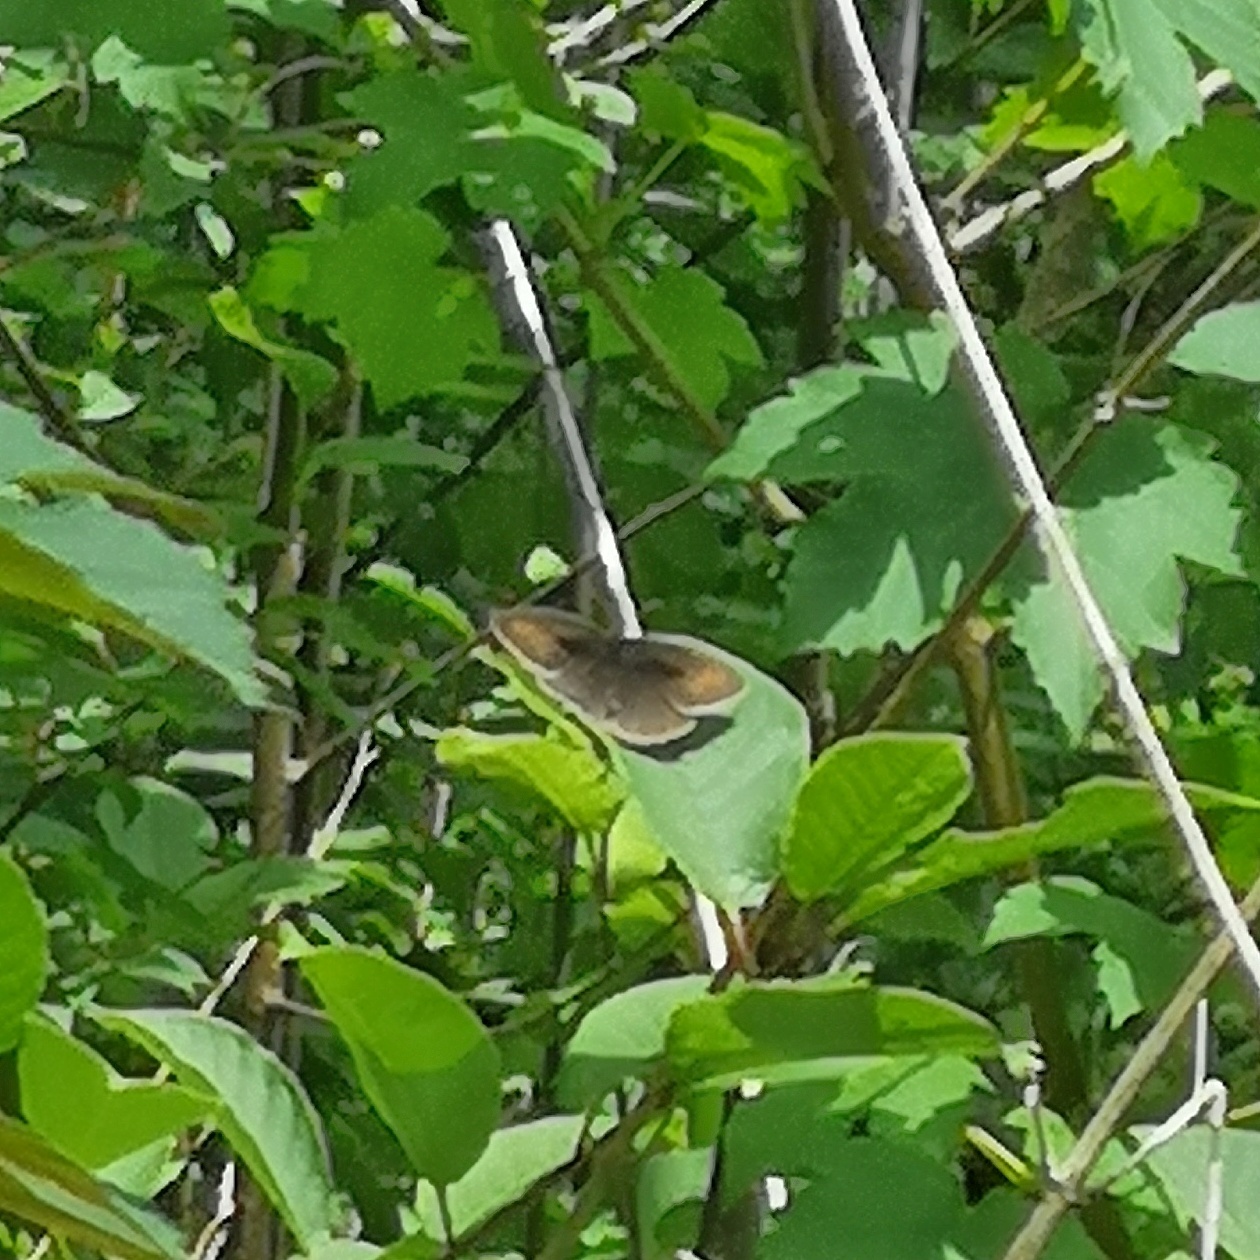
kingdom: Animalia
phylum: Arthropoda
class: Insecta
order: Lepidoptera
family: Nymphalidae
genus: Maniola
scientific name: Maniola jurtina
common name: Meadow brown
